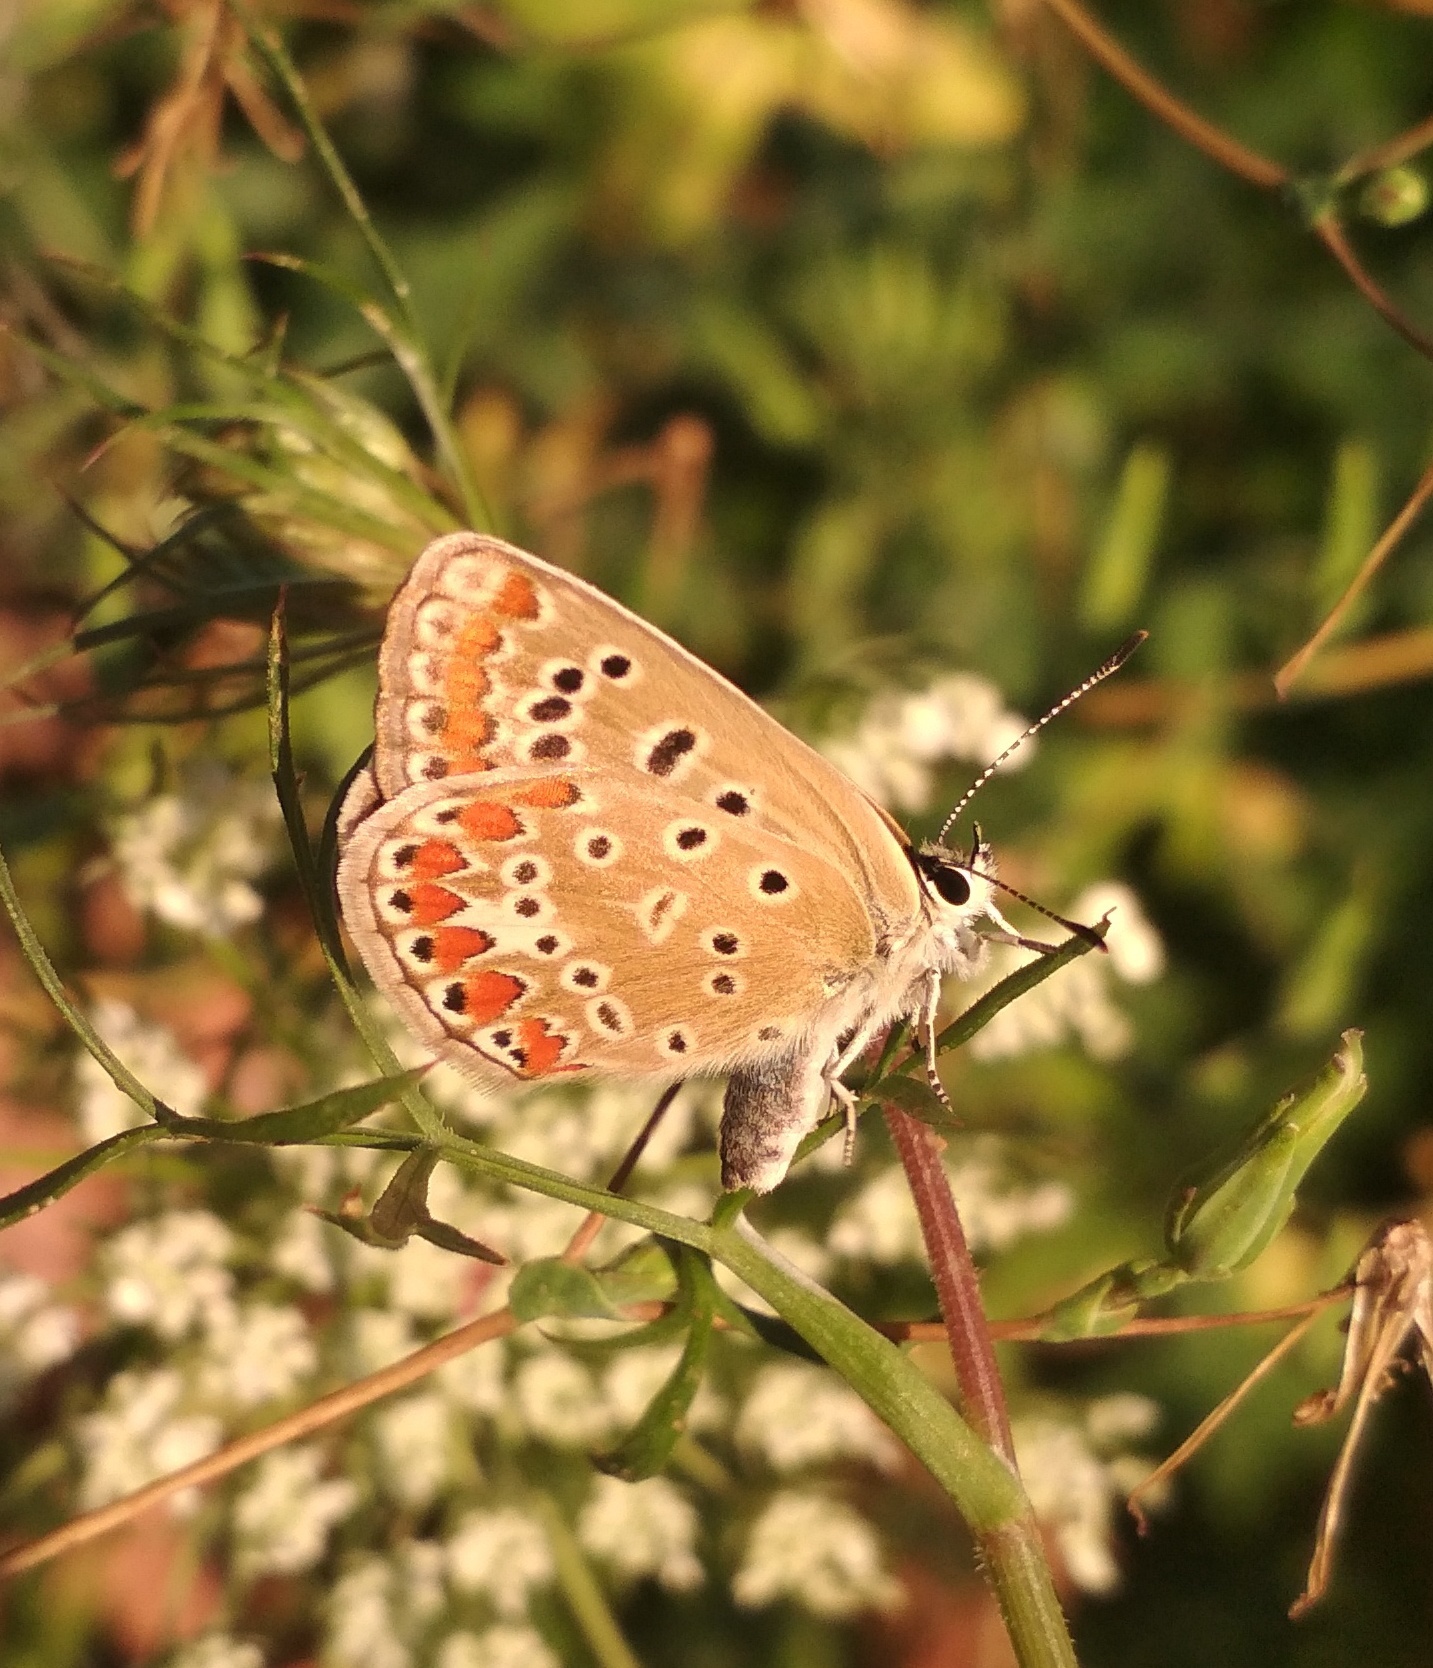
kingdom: Animalia
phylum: Arthropoda
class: Insecta
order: Lepidoptera
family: Lycaenidae
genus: Polyommatus
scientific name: Polyommatus icarus
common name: Common blue
